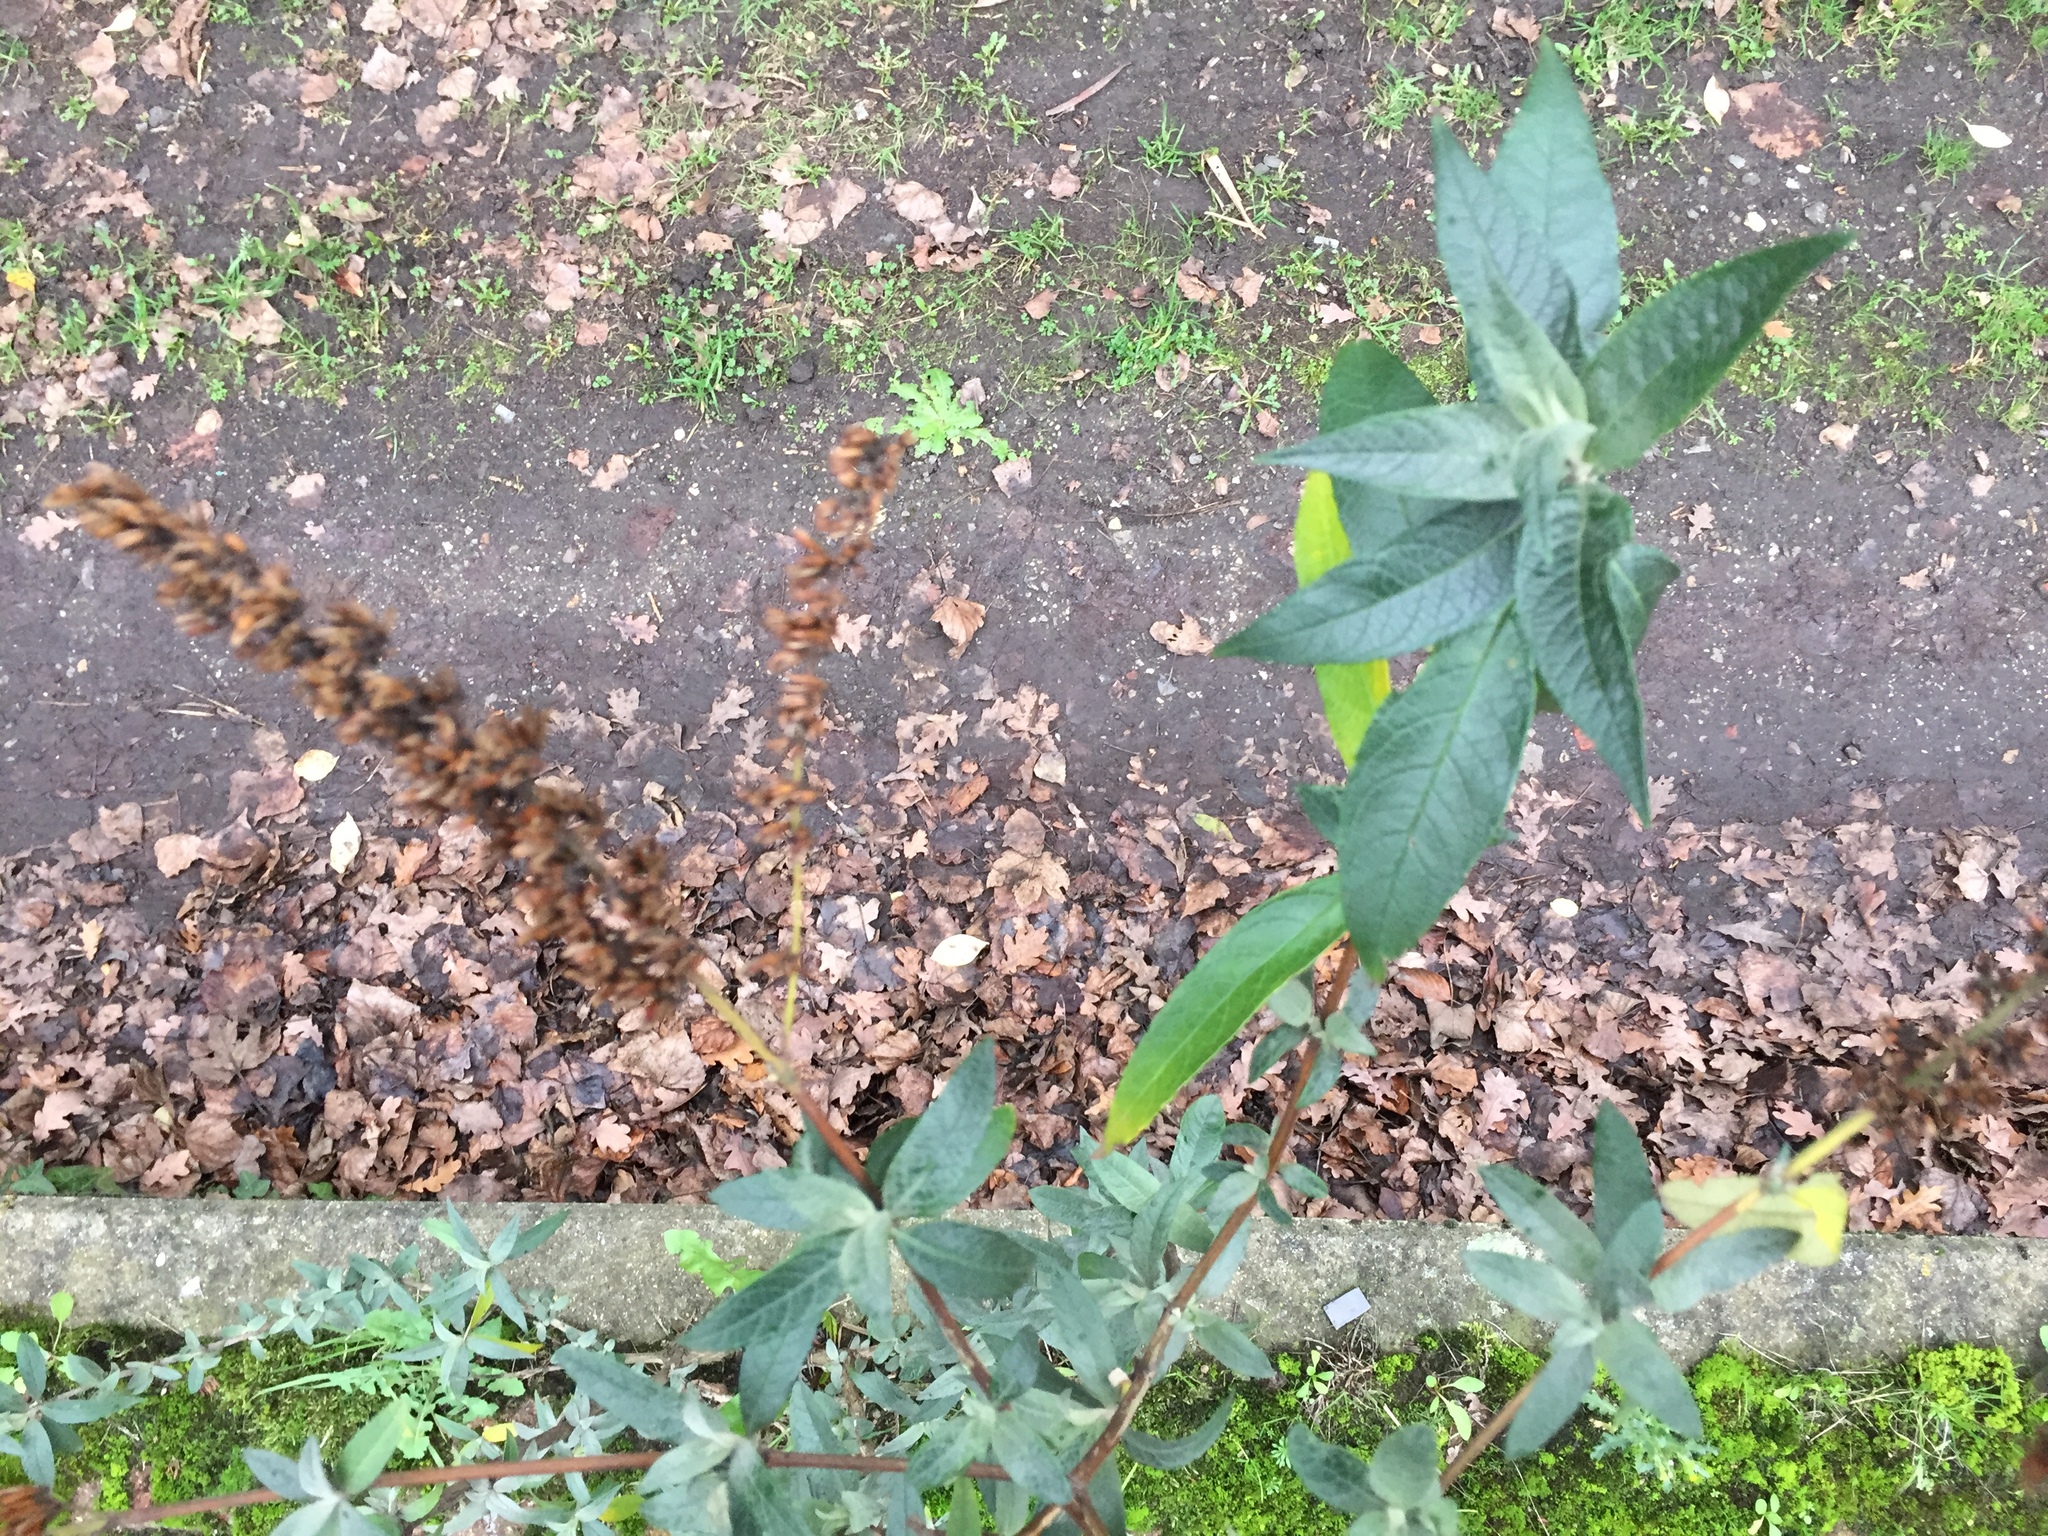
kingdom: Plantae
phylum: Tracheophyta
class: Magnoliopsida
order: Lamiales
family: Scrophulariaceae
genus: Buddleja
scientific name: Buddleja davidii
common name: Butterfly-bush
